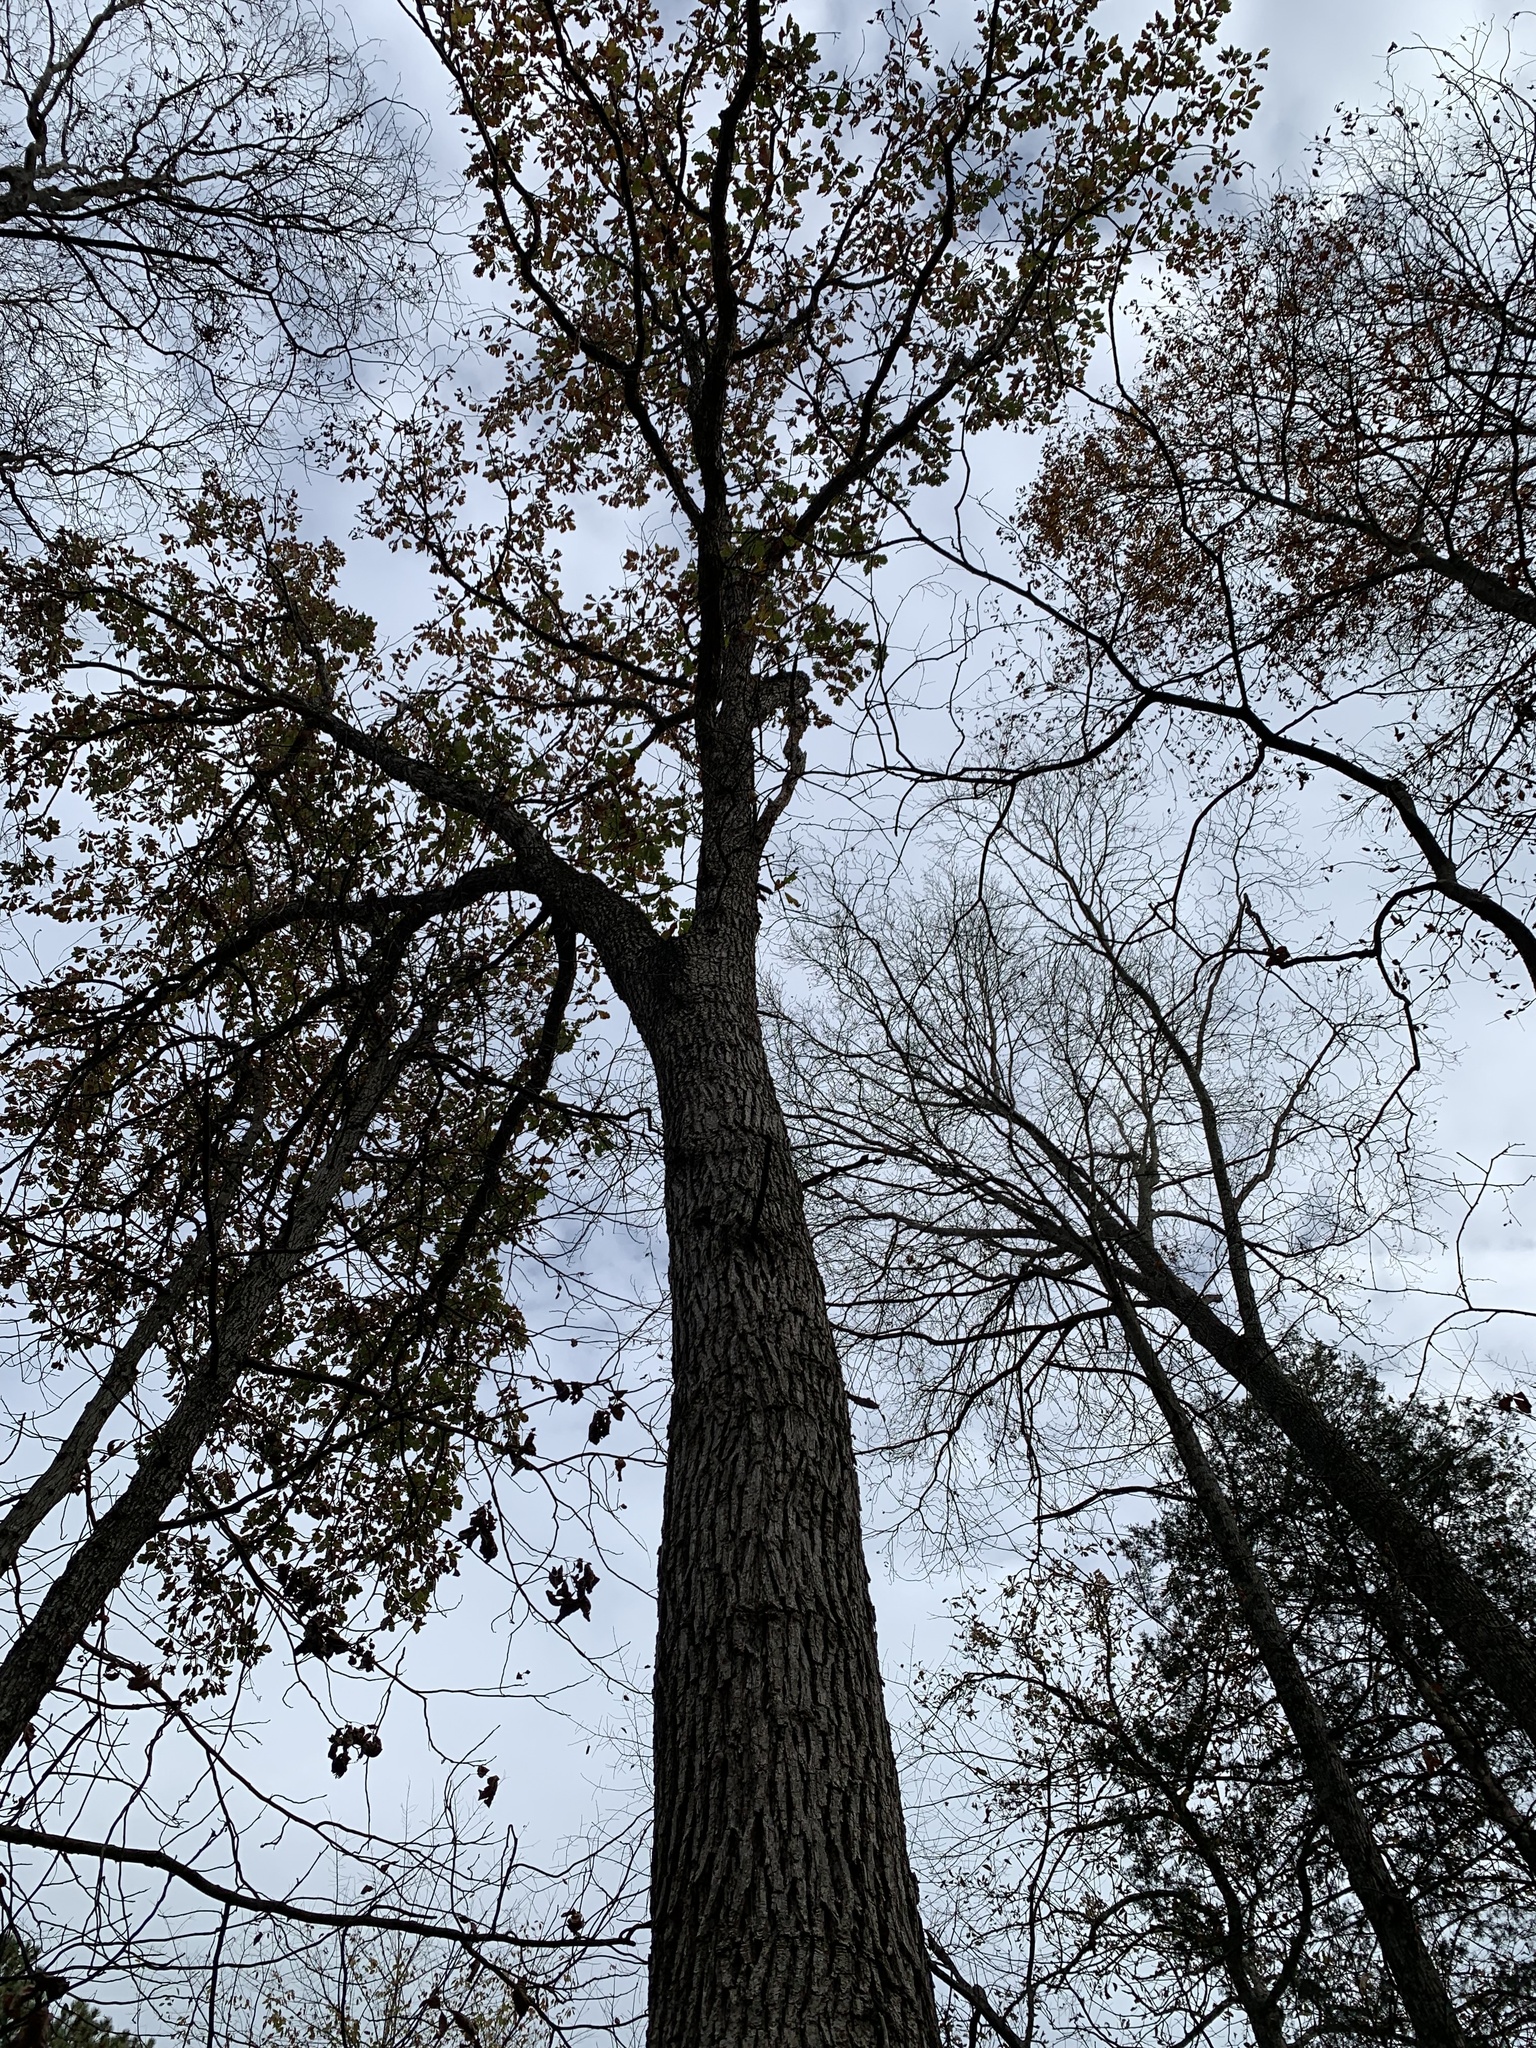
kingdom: Plantae
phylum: Tracheophyta
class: Magnoliopsida
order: Fagales
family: Fagaceae
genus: Quercus
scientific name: Quercus bicolor
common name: Swamp white oak
